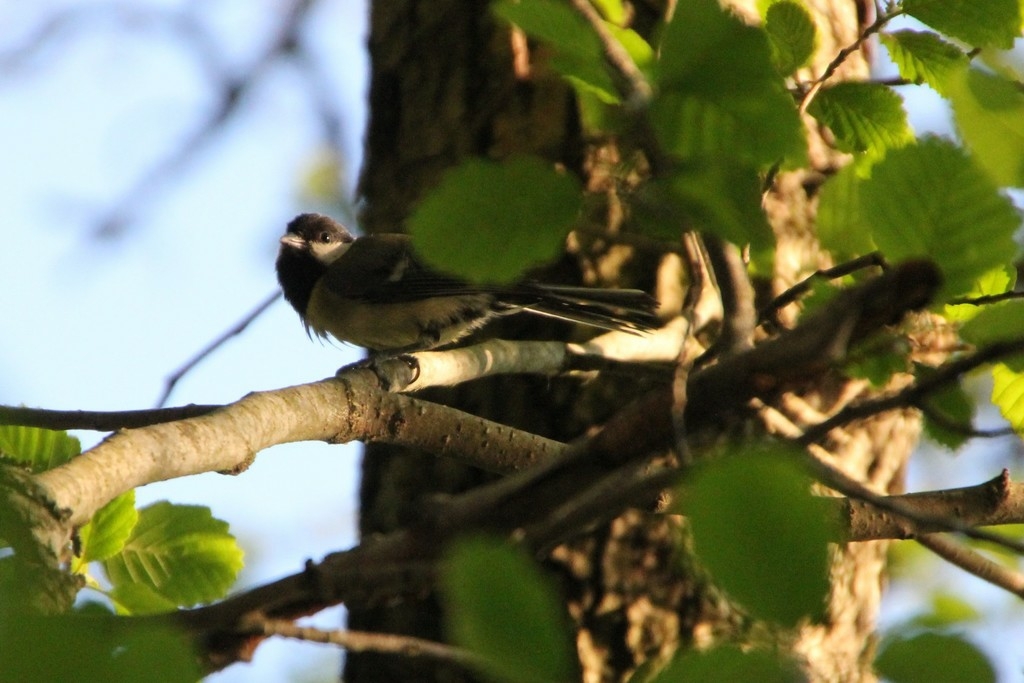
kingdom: Animalia
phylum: Chordata
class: Aves
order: Passeriformes
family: Paridae
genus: Parus
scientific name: Parus major
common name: Great tit
